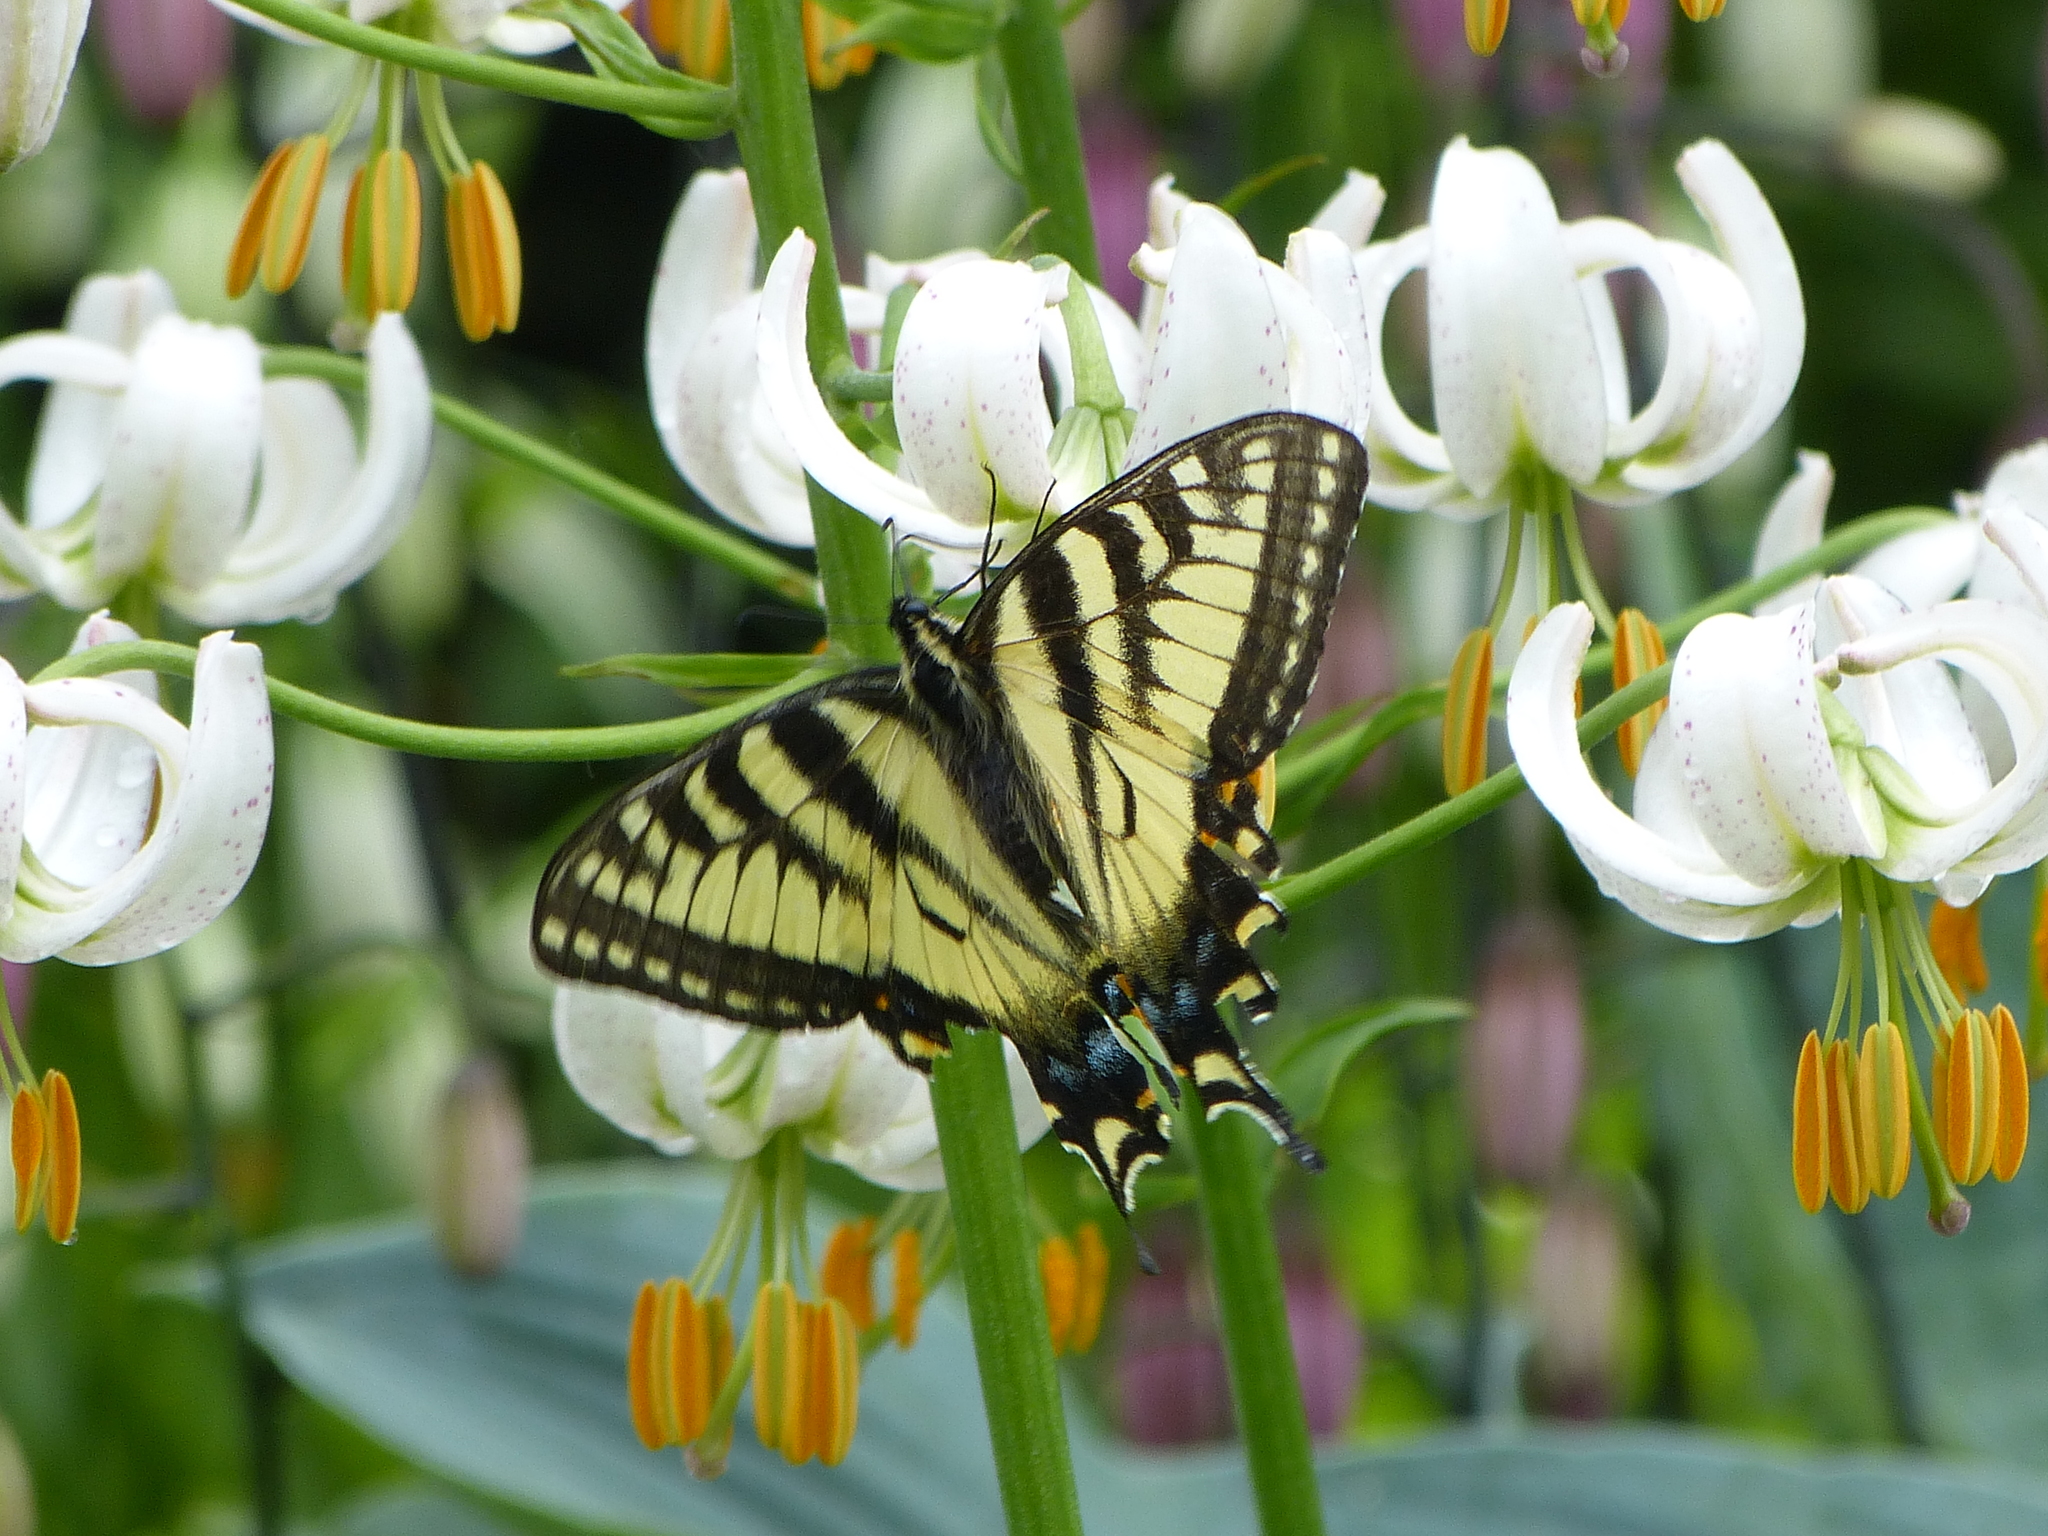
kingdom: Animalia
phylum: Arthropoda
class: Insecta
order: Lepidoptera
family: Papilionidae
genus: Papilio
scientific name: Papilio canadensis
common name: Canadian tiger swallowtail
